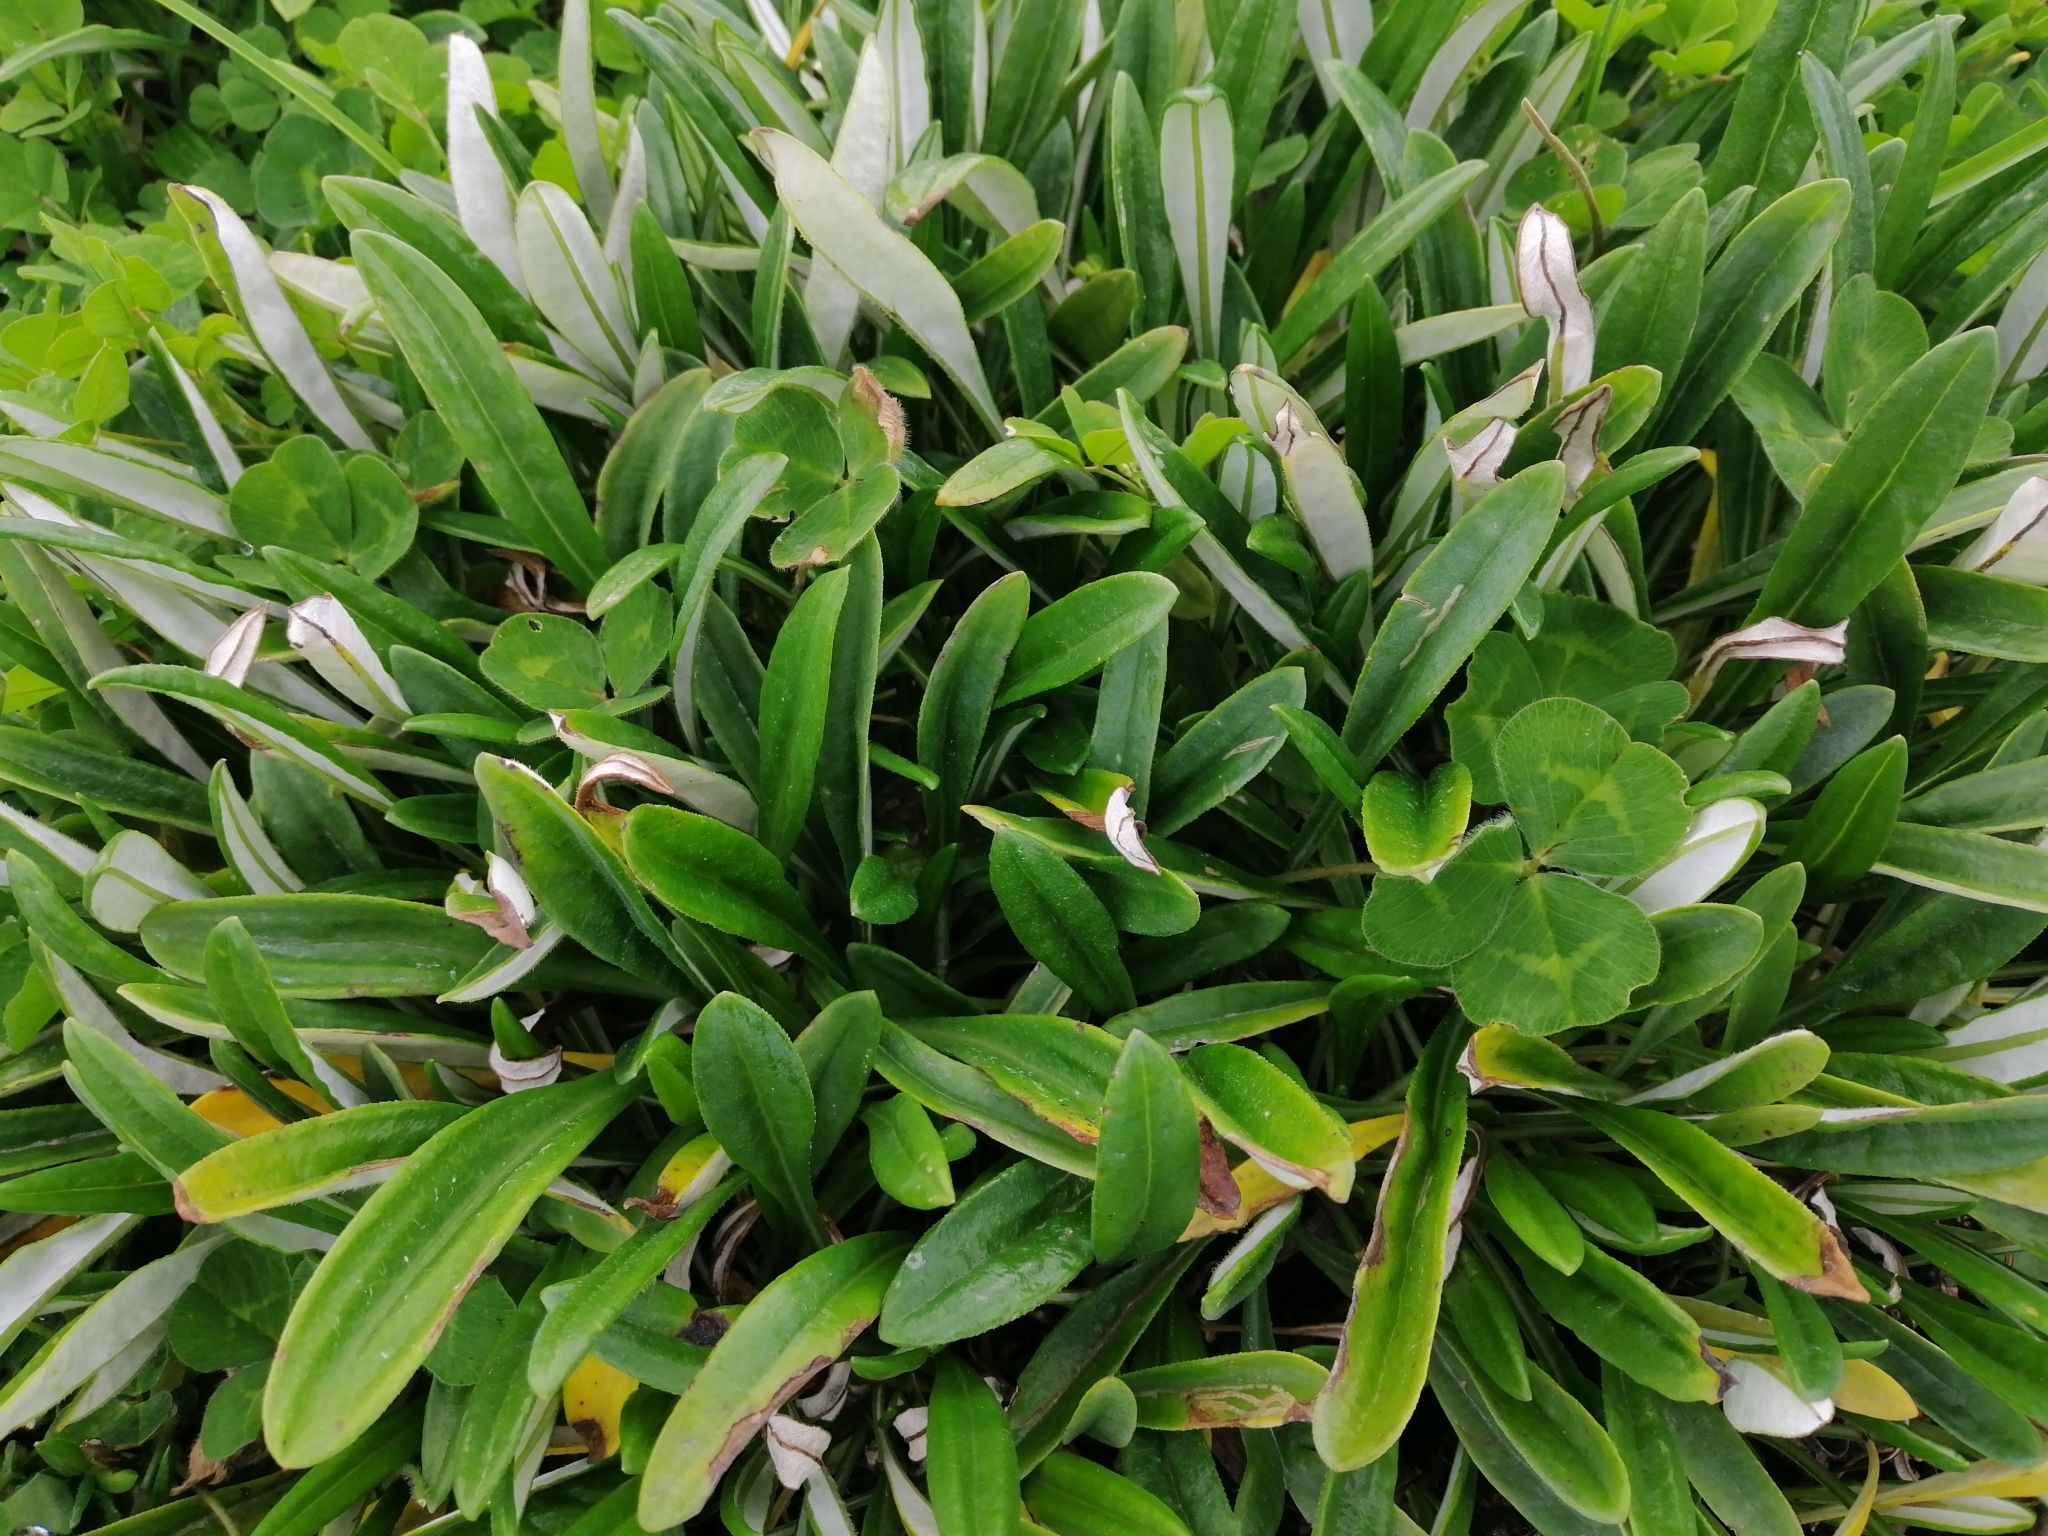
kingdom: Plantae
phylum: Tracheophyta
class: Magnoliopsida
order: Asterales
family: Asteraceae
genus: Gazania
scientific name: Gazania rigens
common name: Treasureflower
